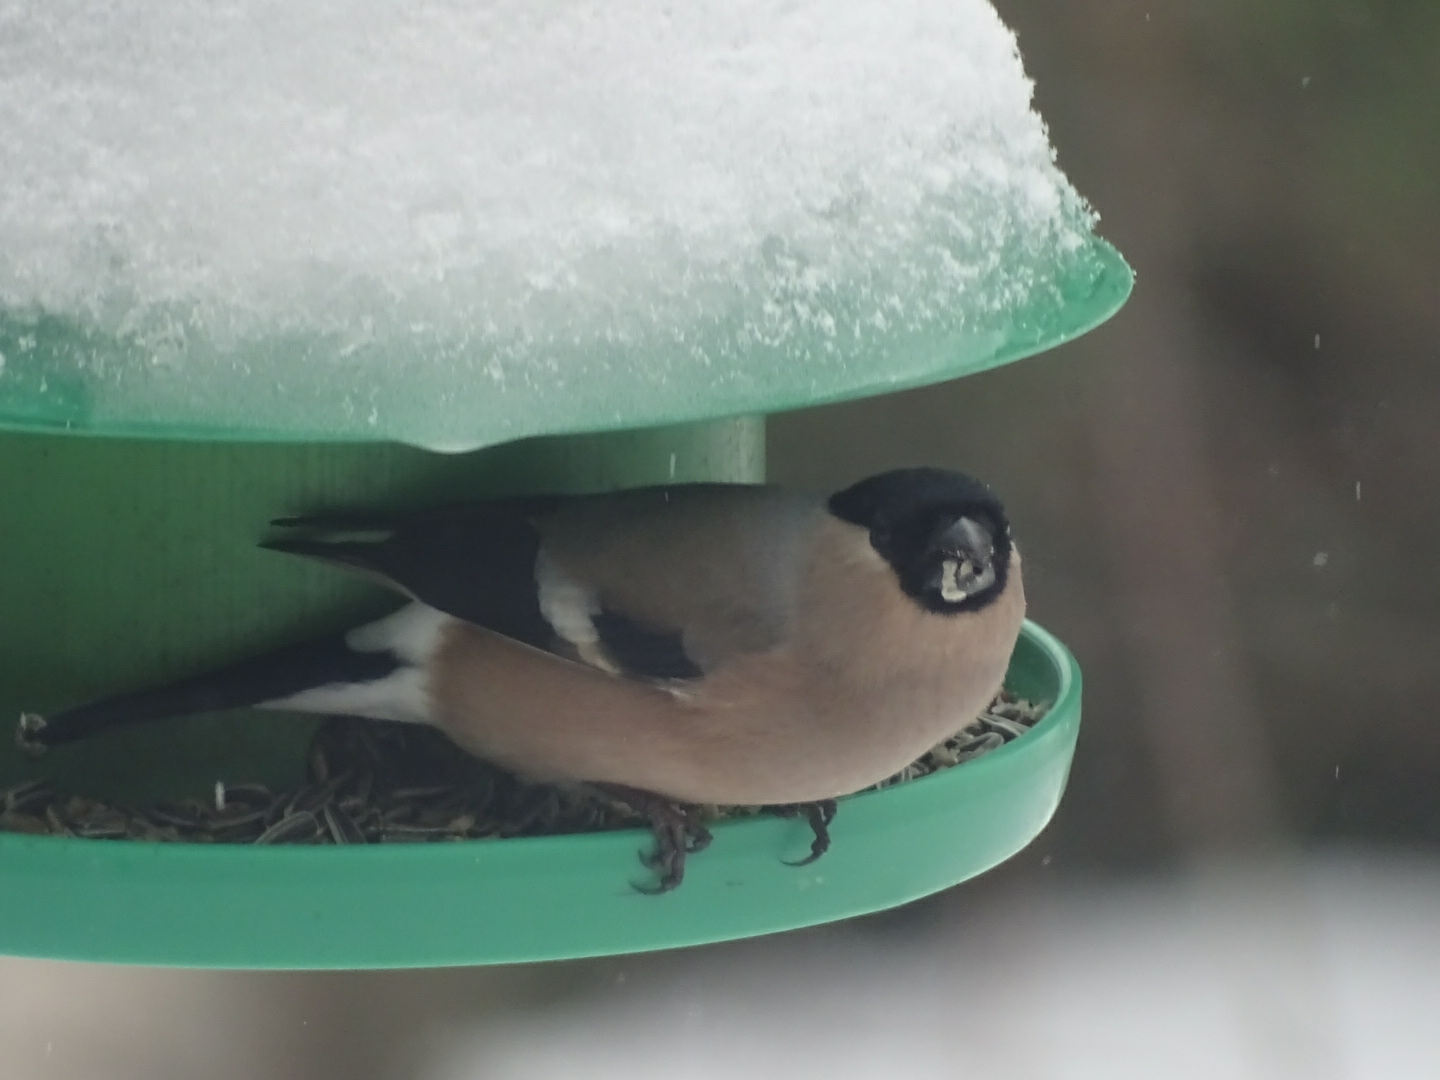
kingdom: Animalia
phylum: Chordata
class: Aves
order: Passeriformes
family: Fringillidae
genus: Pyrrhula
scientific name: Pyrrhula pyrrhula
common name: Eurasian bullfinch
